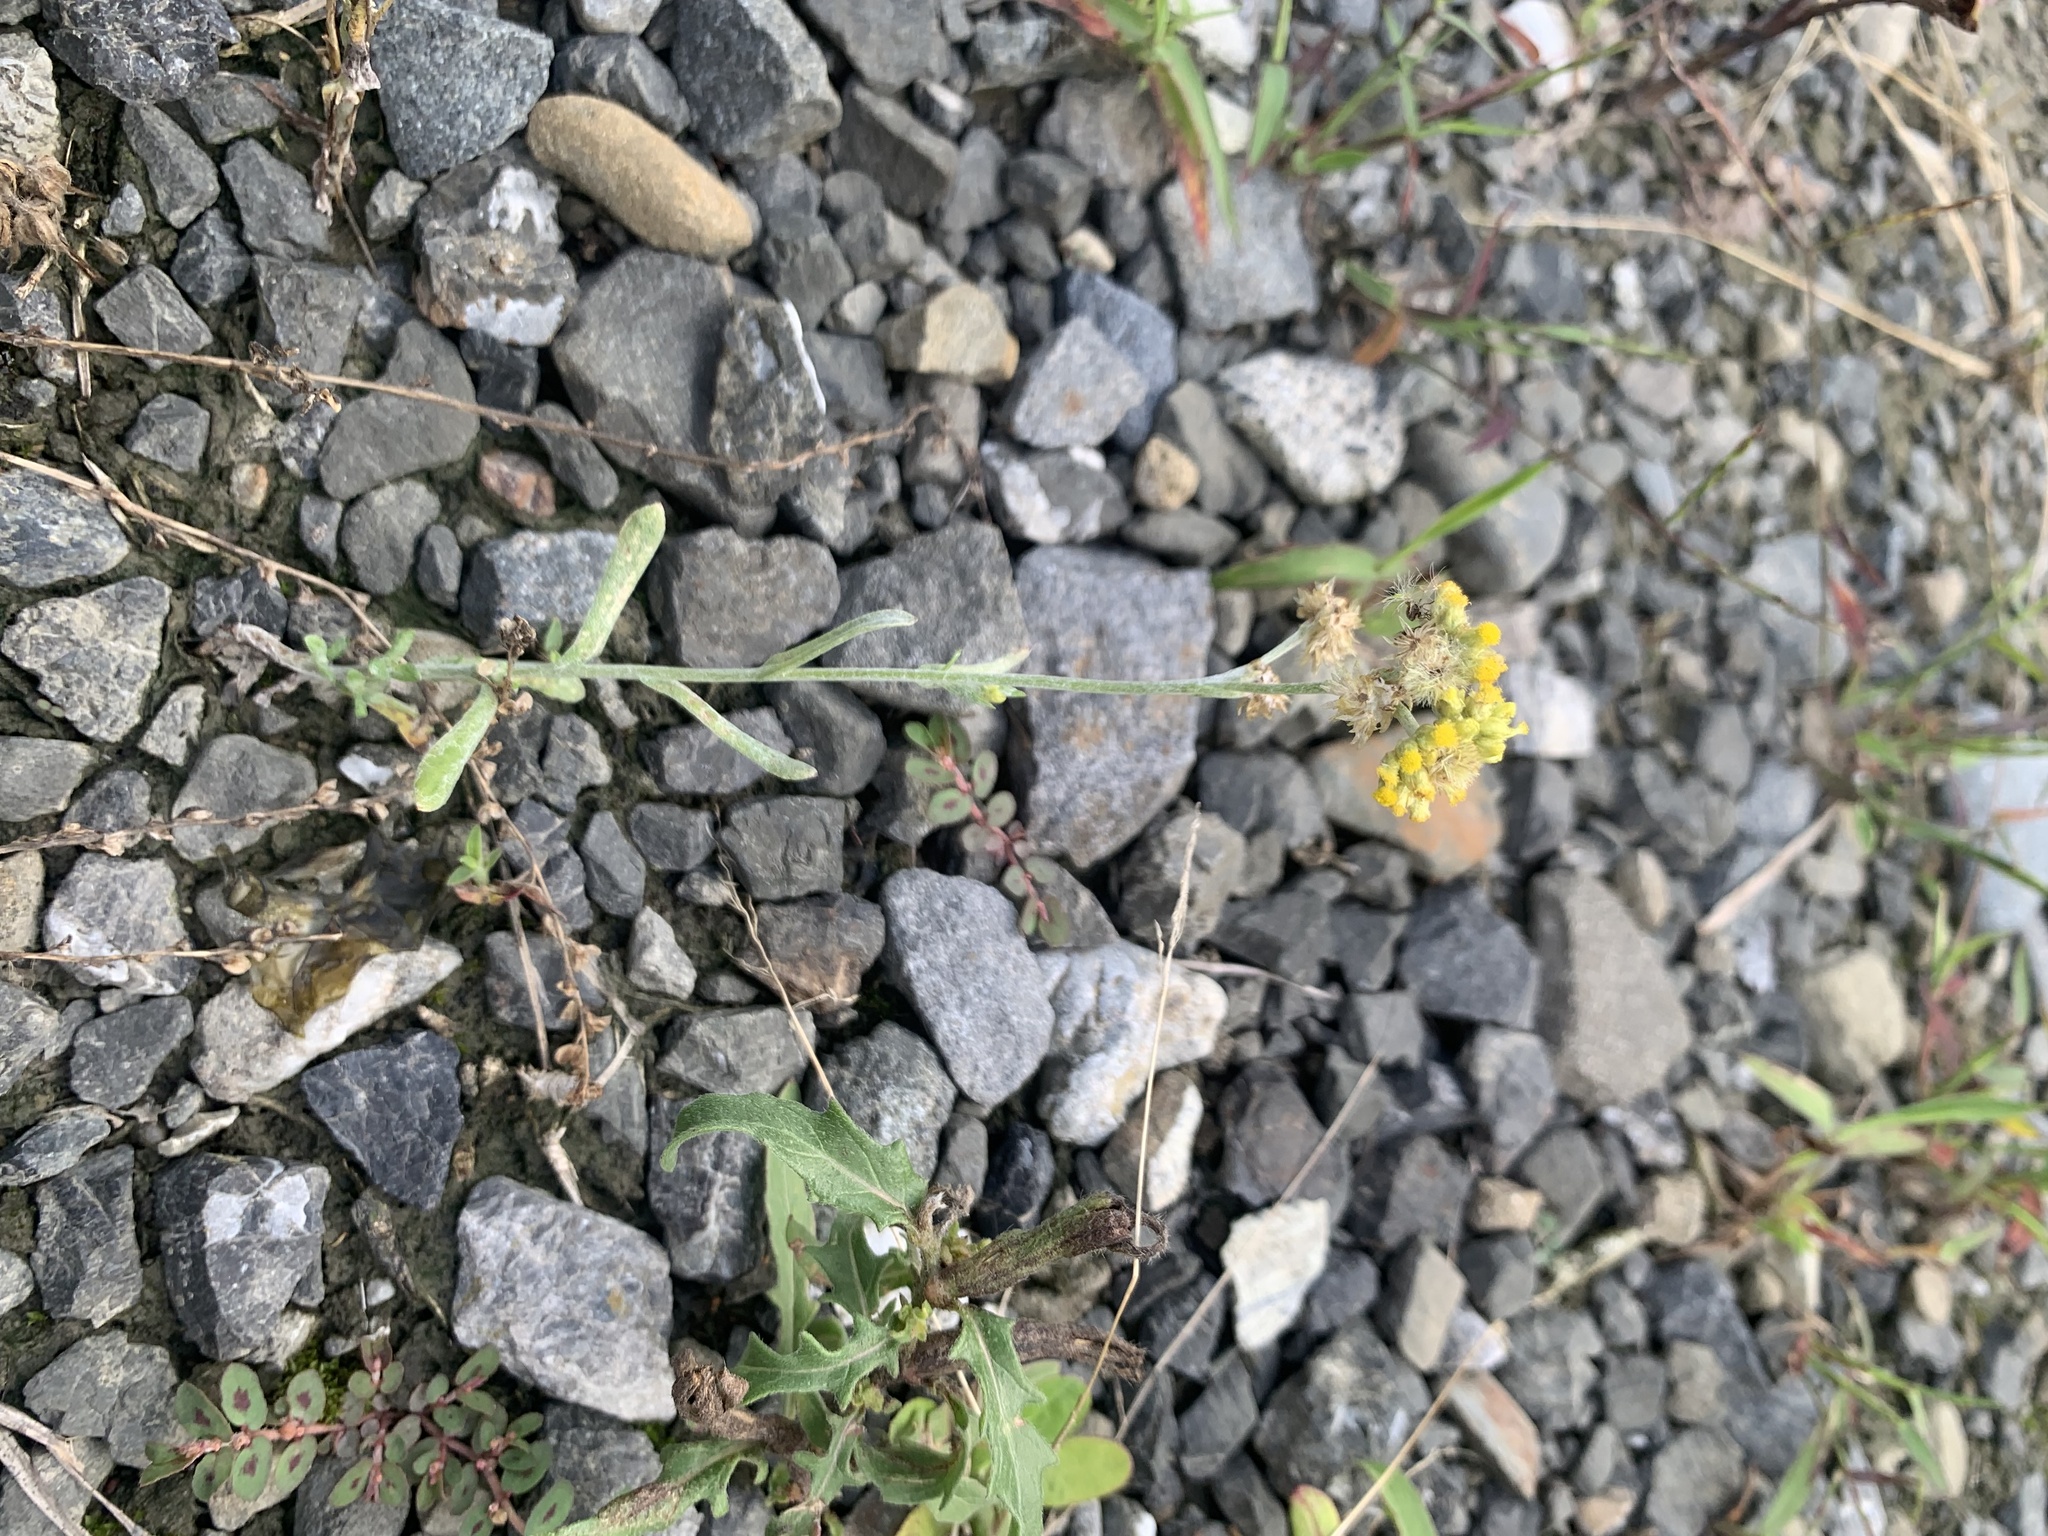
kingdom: Plantae
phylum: Tracheophyta
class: Magnoliopsida
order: Asterales
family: Asteraceae
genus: Pseudognaphalium
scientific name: Pseudognaphalium affine
